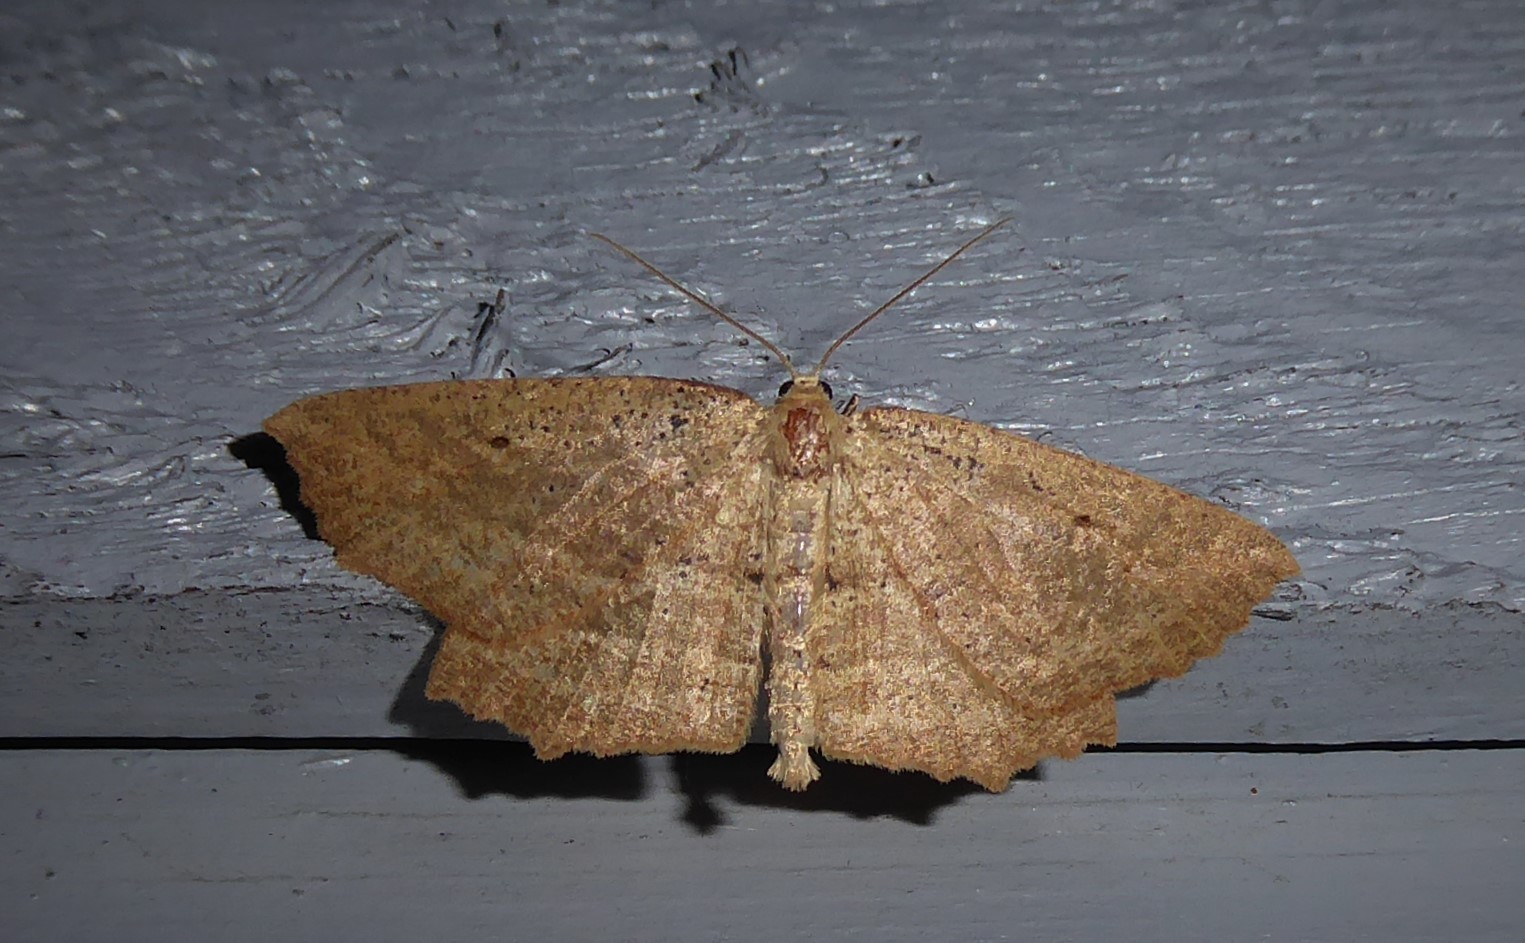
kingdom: Animalia
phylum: Arthropoda
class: Insecta
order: Lepidoptera
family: Geometridae
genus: Xyridacma
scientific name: Xyridacma veronicae
